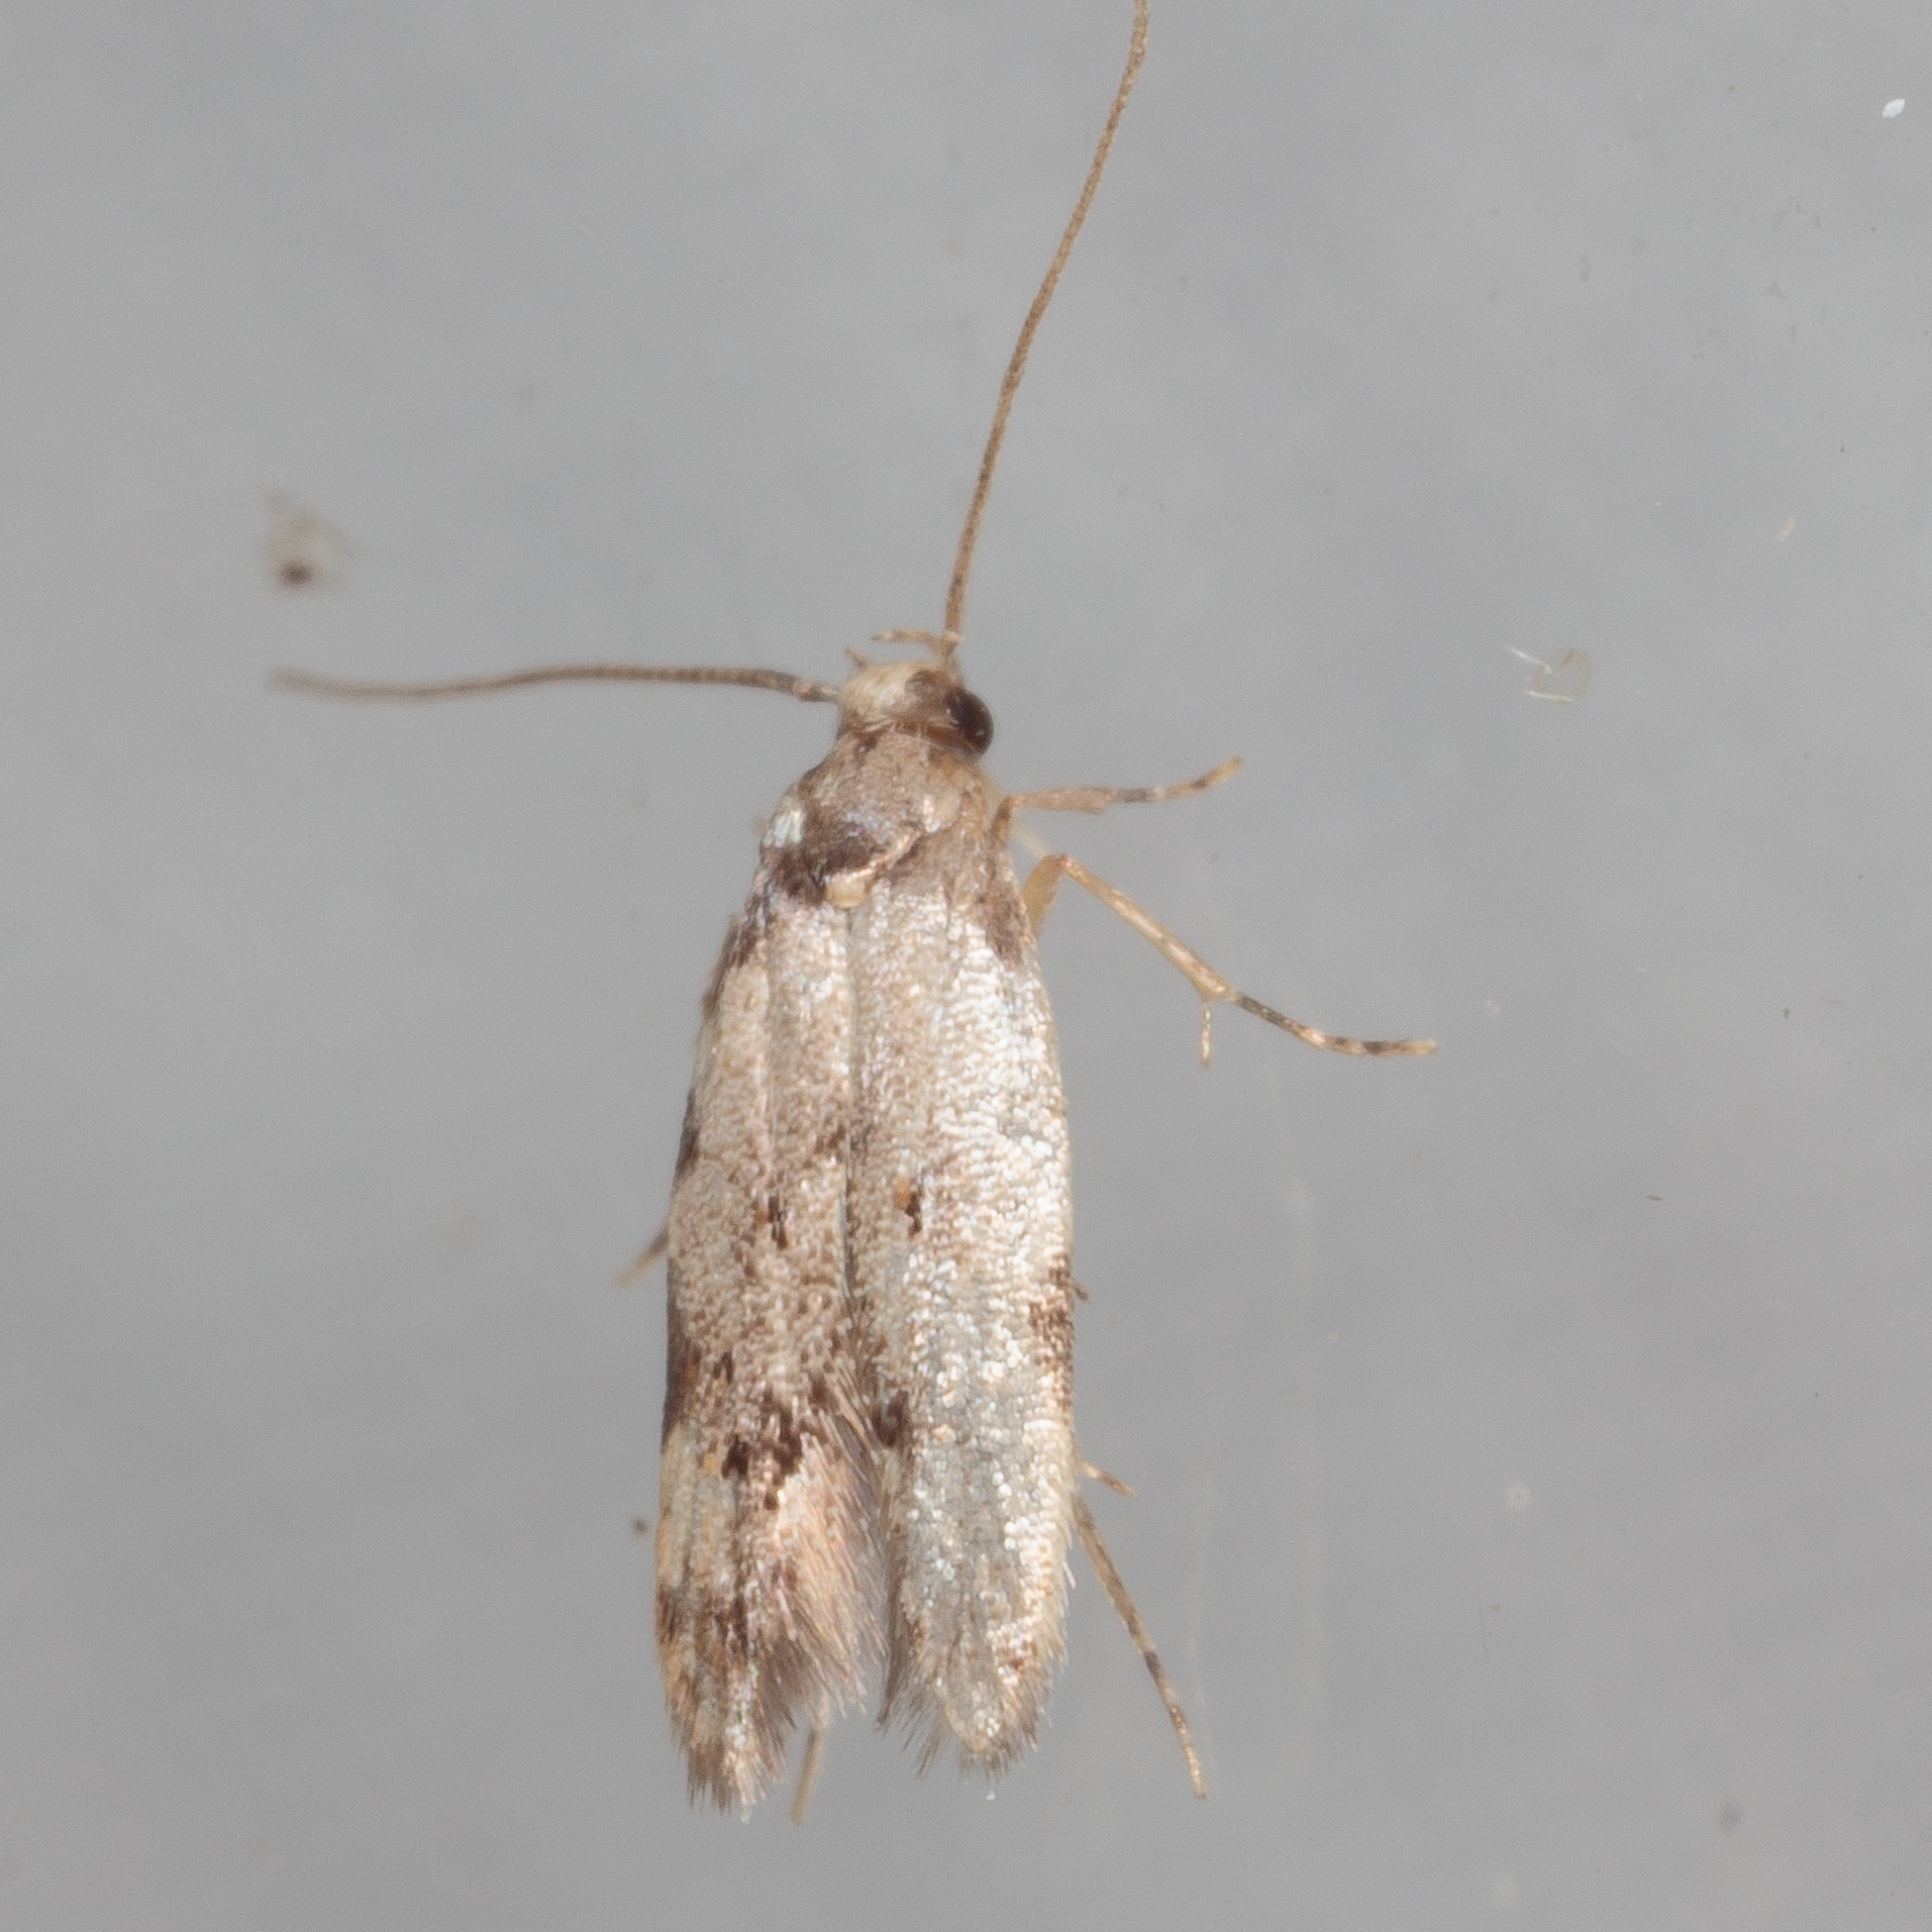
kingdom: Animalia
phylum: Arthropoda
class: Insecta
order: Lepidoptera
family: Autostichidae
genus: Taygete
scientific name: Taygete attributella
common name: Triangle-marked twirler moth
